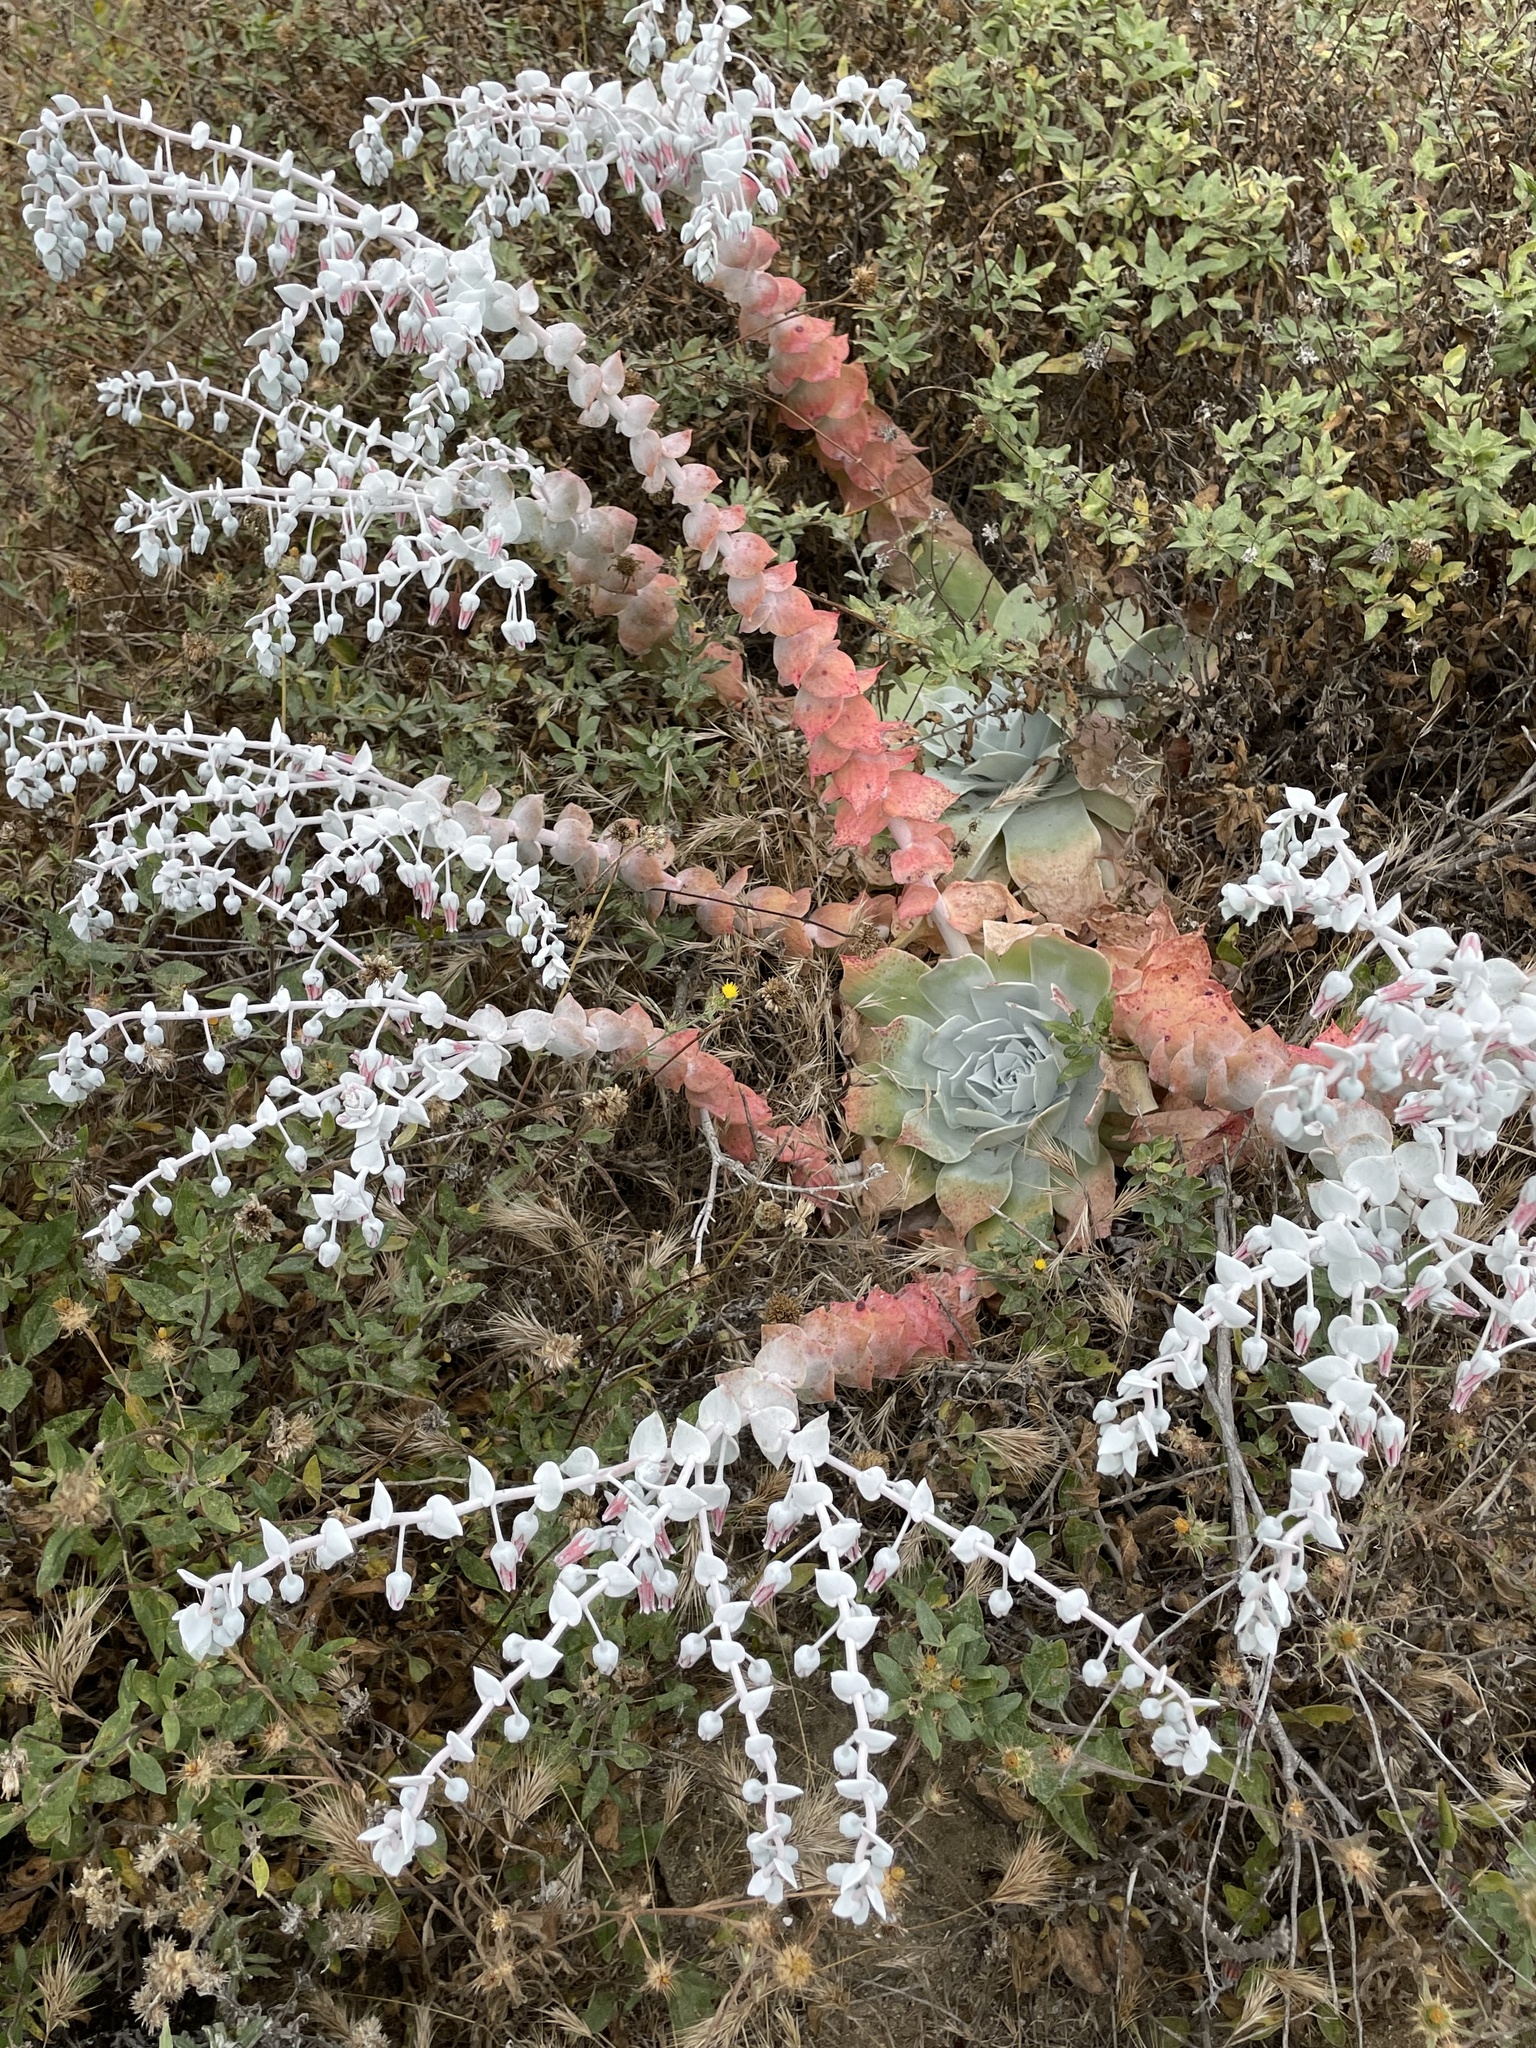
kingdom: Plantae
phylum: Tracheophyta
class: Magnoliopsida
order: Saxifragales
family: Crassulaceae
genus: Dudleya
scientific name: Dudleya pulverulenta
